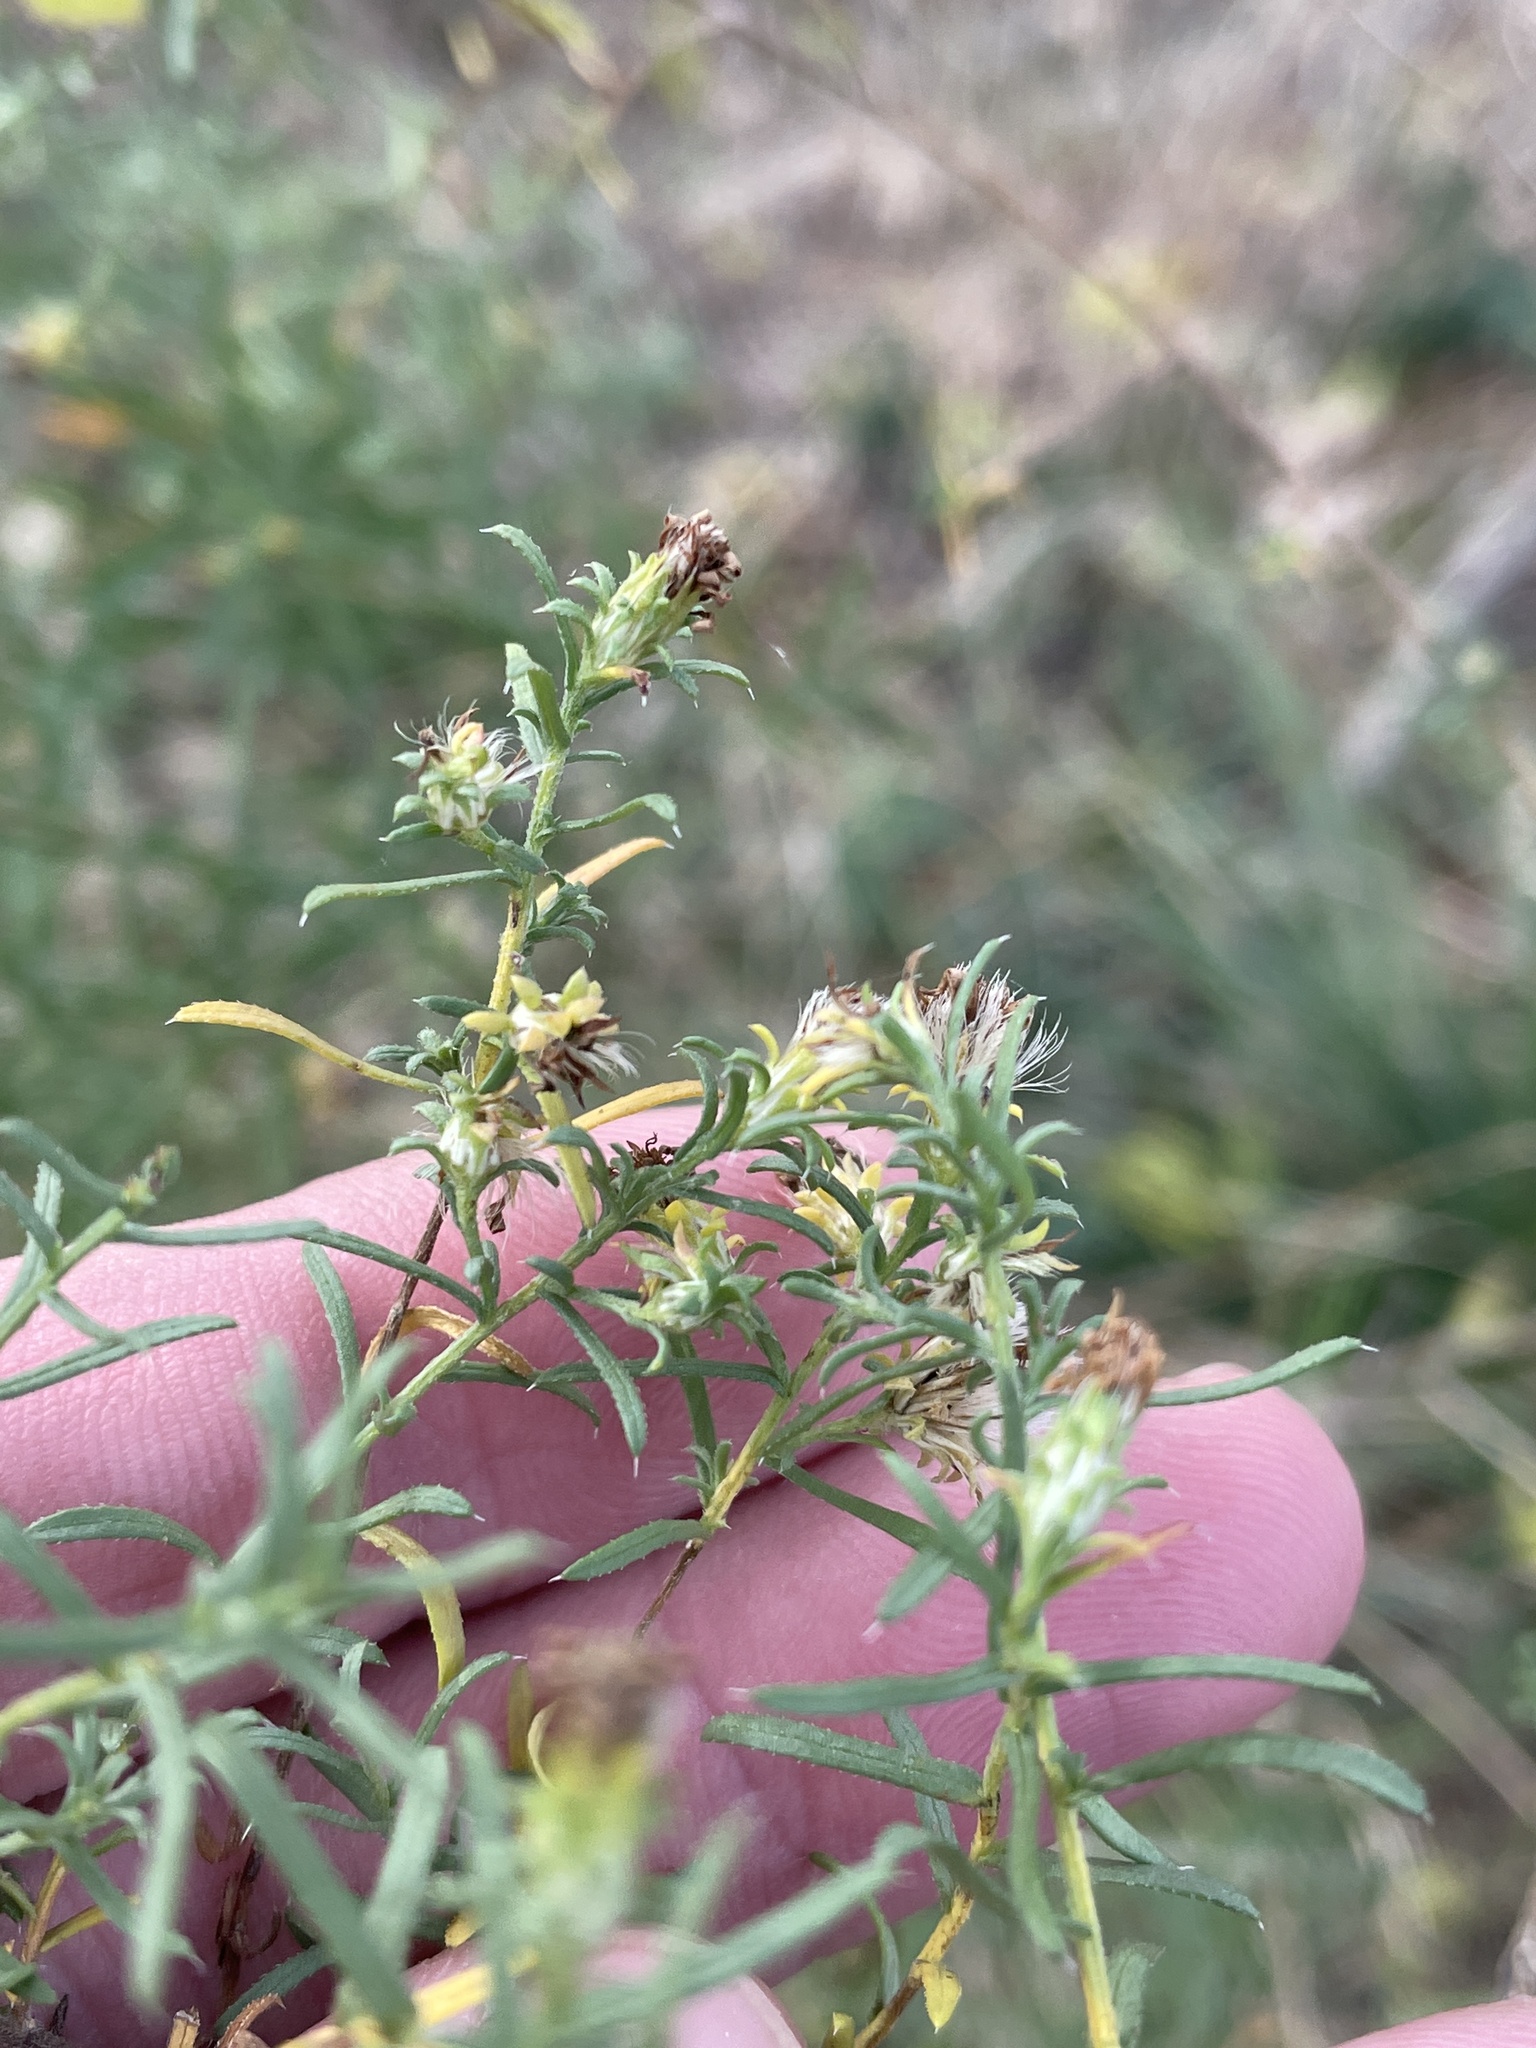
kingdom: Plantae
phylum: Tracheophyta
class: Magnoliopsida
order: Asterales
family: Asteraceae
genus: Symphyotrichum
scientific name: Symphyotrichum ericoides
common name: Heath aster
